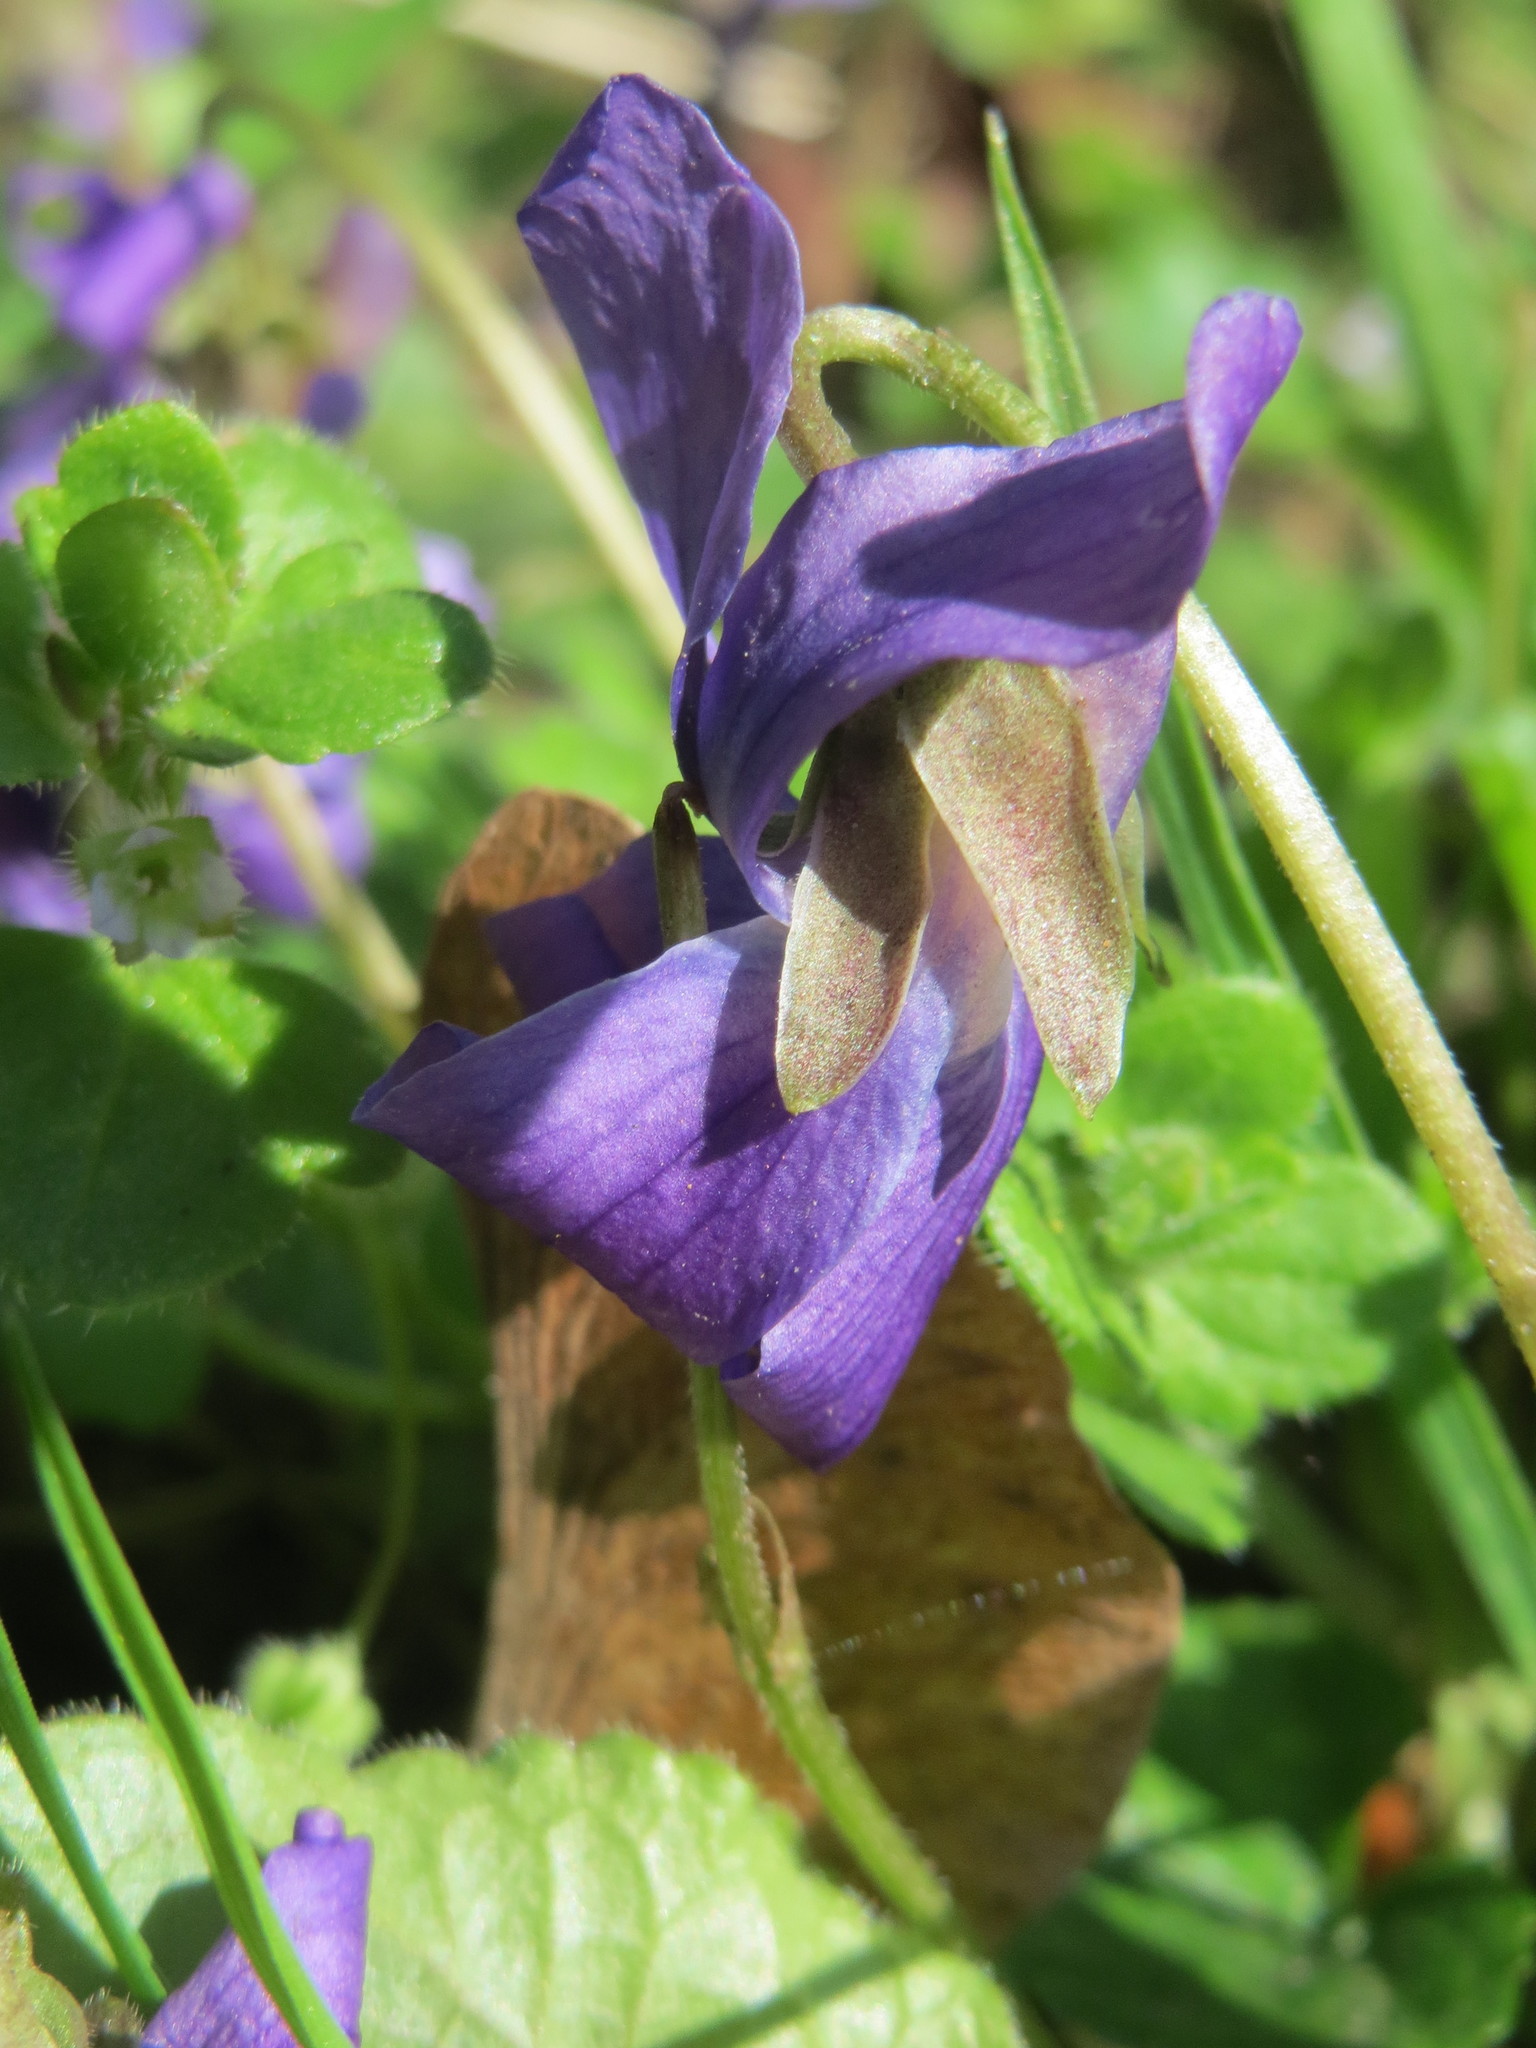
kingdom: Plantae
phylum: Tracheophyta
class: Magnoliopsida
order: Malpighiales
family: Violaceae
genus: Viola
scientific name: Viola odorata
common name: Sweet violet
